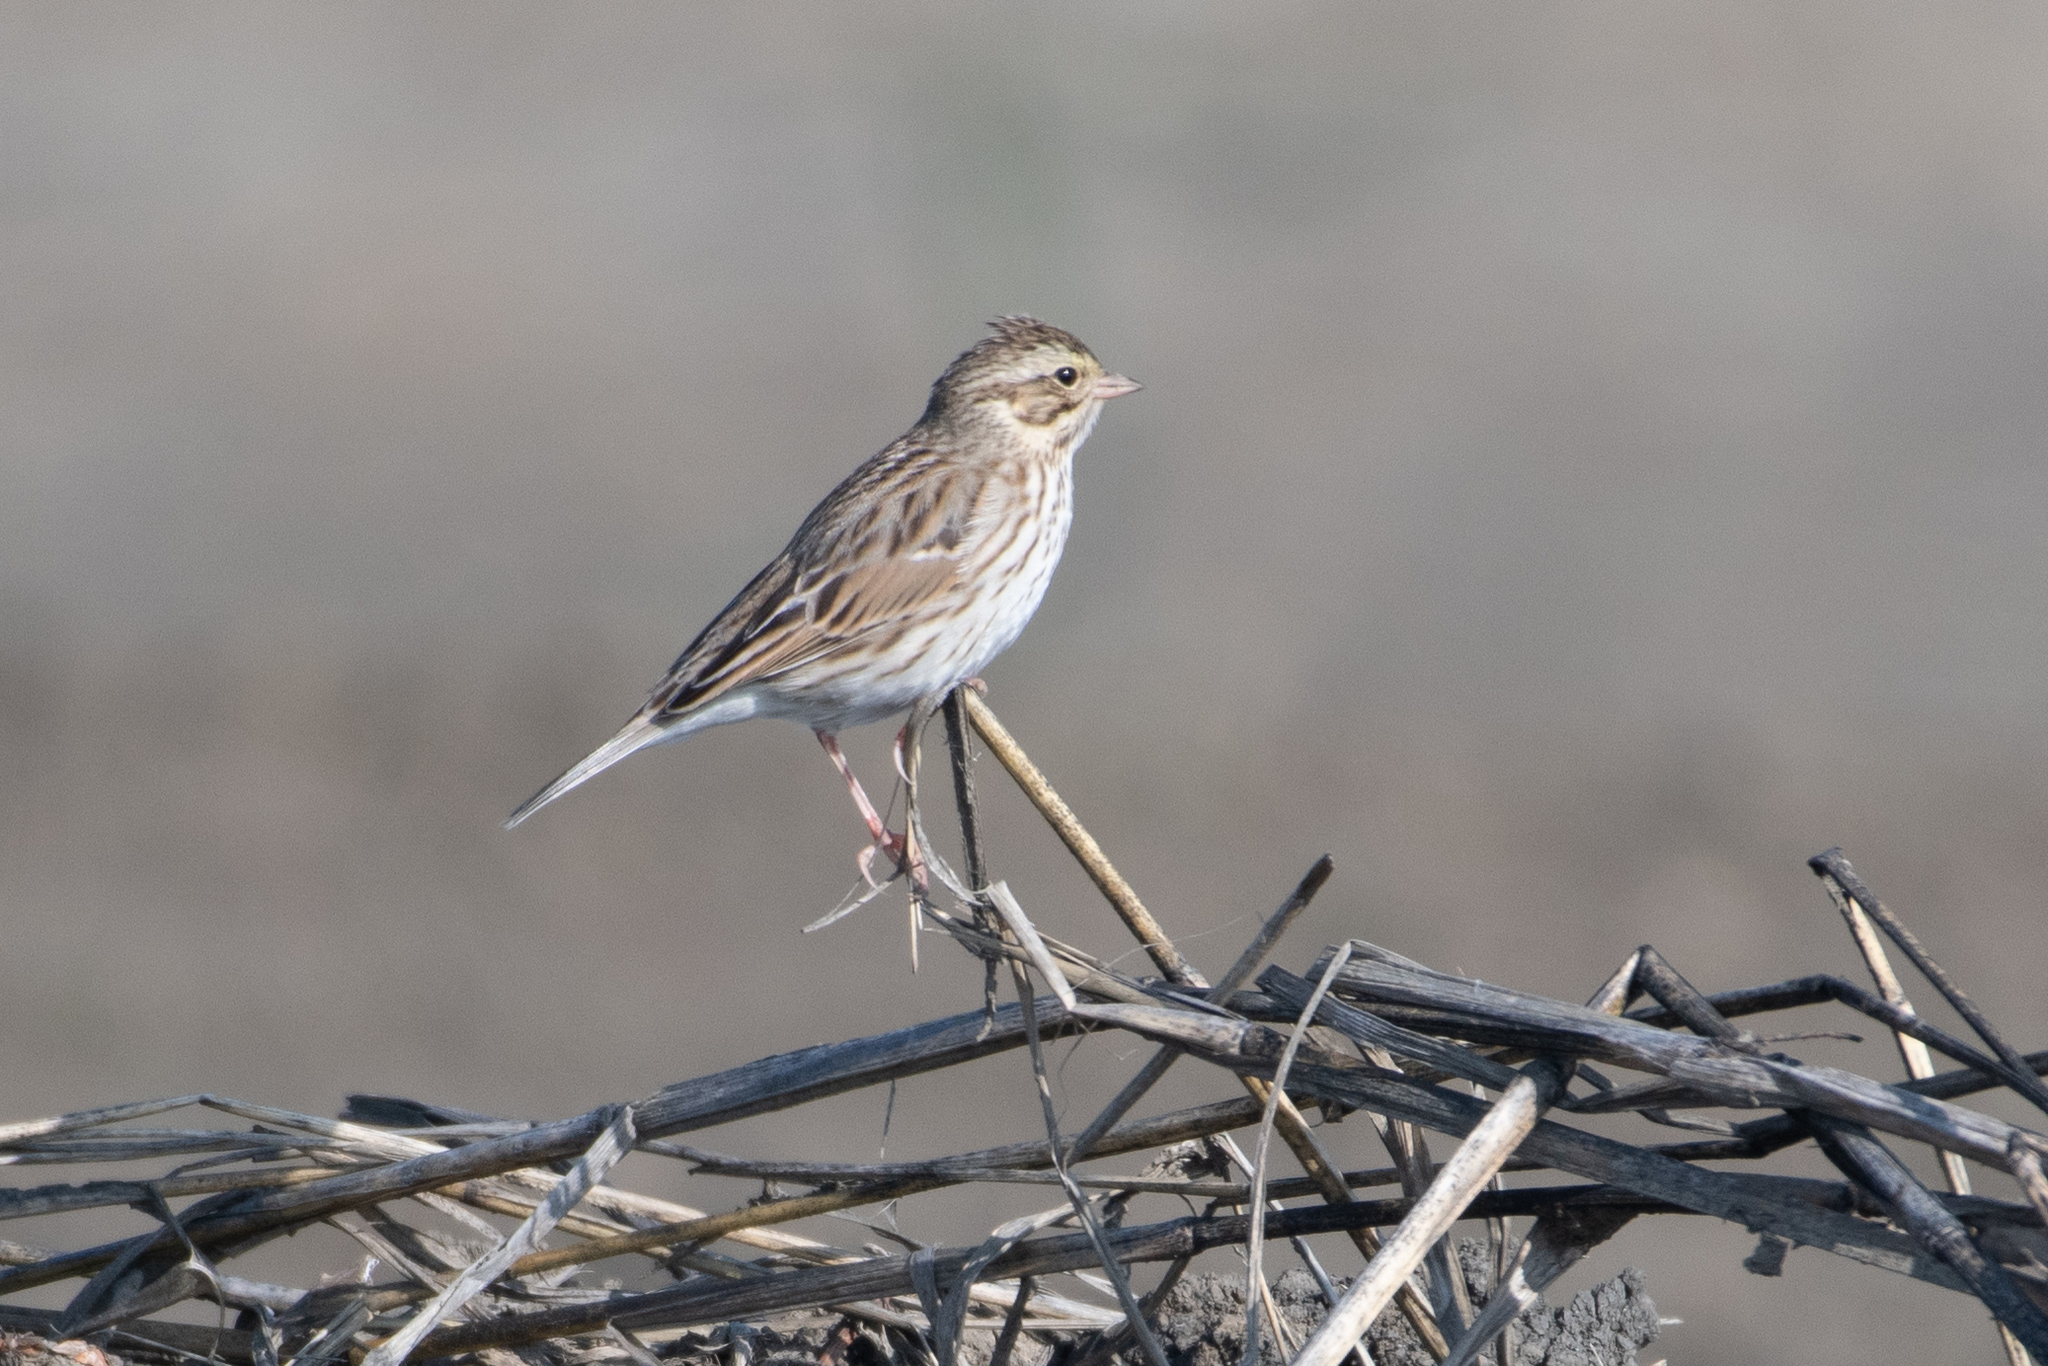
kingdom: Animalia
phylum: Chordata
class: Aves
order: Passeriformes
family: Passerellidae
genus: Passerculus
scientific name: Passerculus sandwichensis
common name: Savannah sparrow
